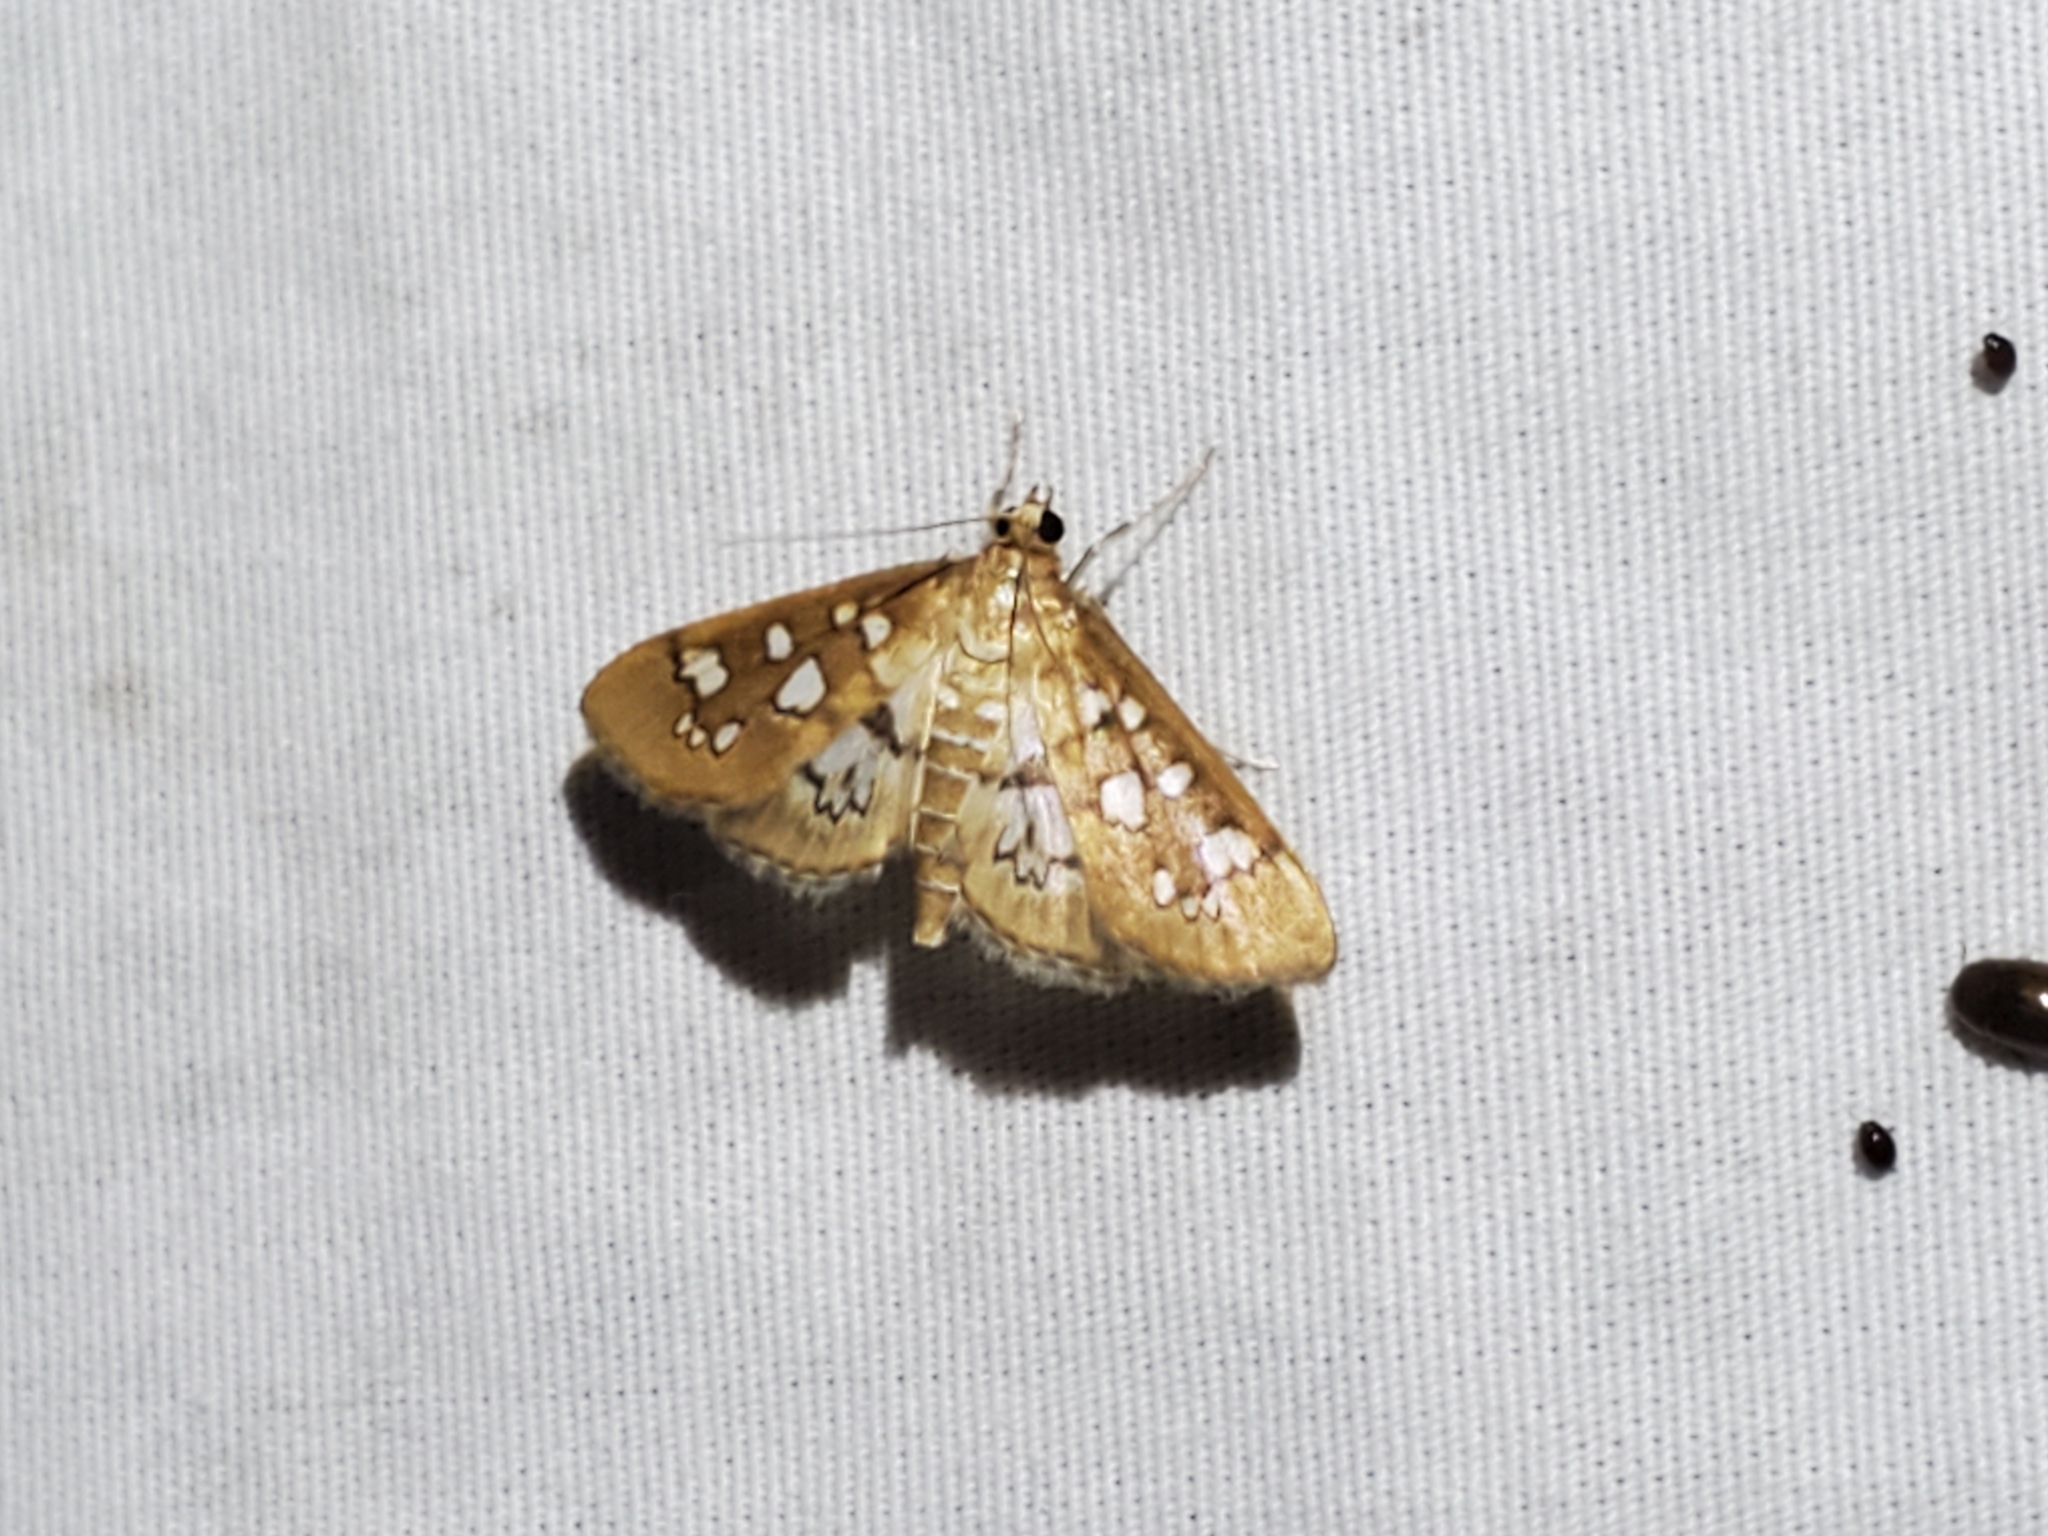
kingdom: Animalia
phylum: Arthropoda
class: Insecta
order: Lepidoptera
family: Crambidae
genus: Samea
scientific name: Samea baccatalis
